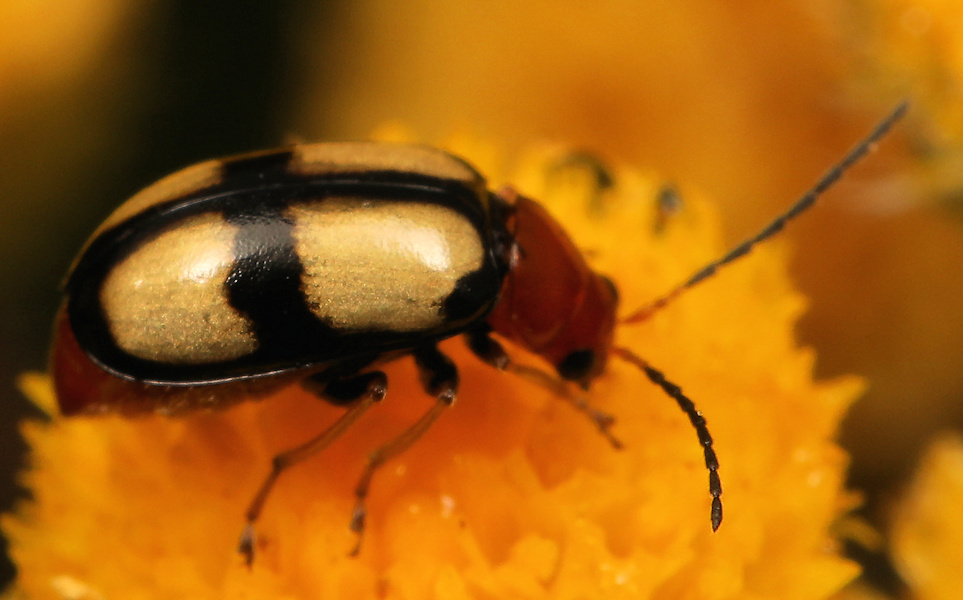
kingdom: Animalia
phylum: Arthropoda
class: Insecta
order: Coleoptera
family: Chrysomelidae
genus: Monolepta
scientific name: Monolepta
